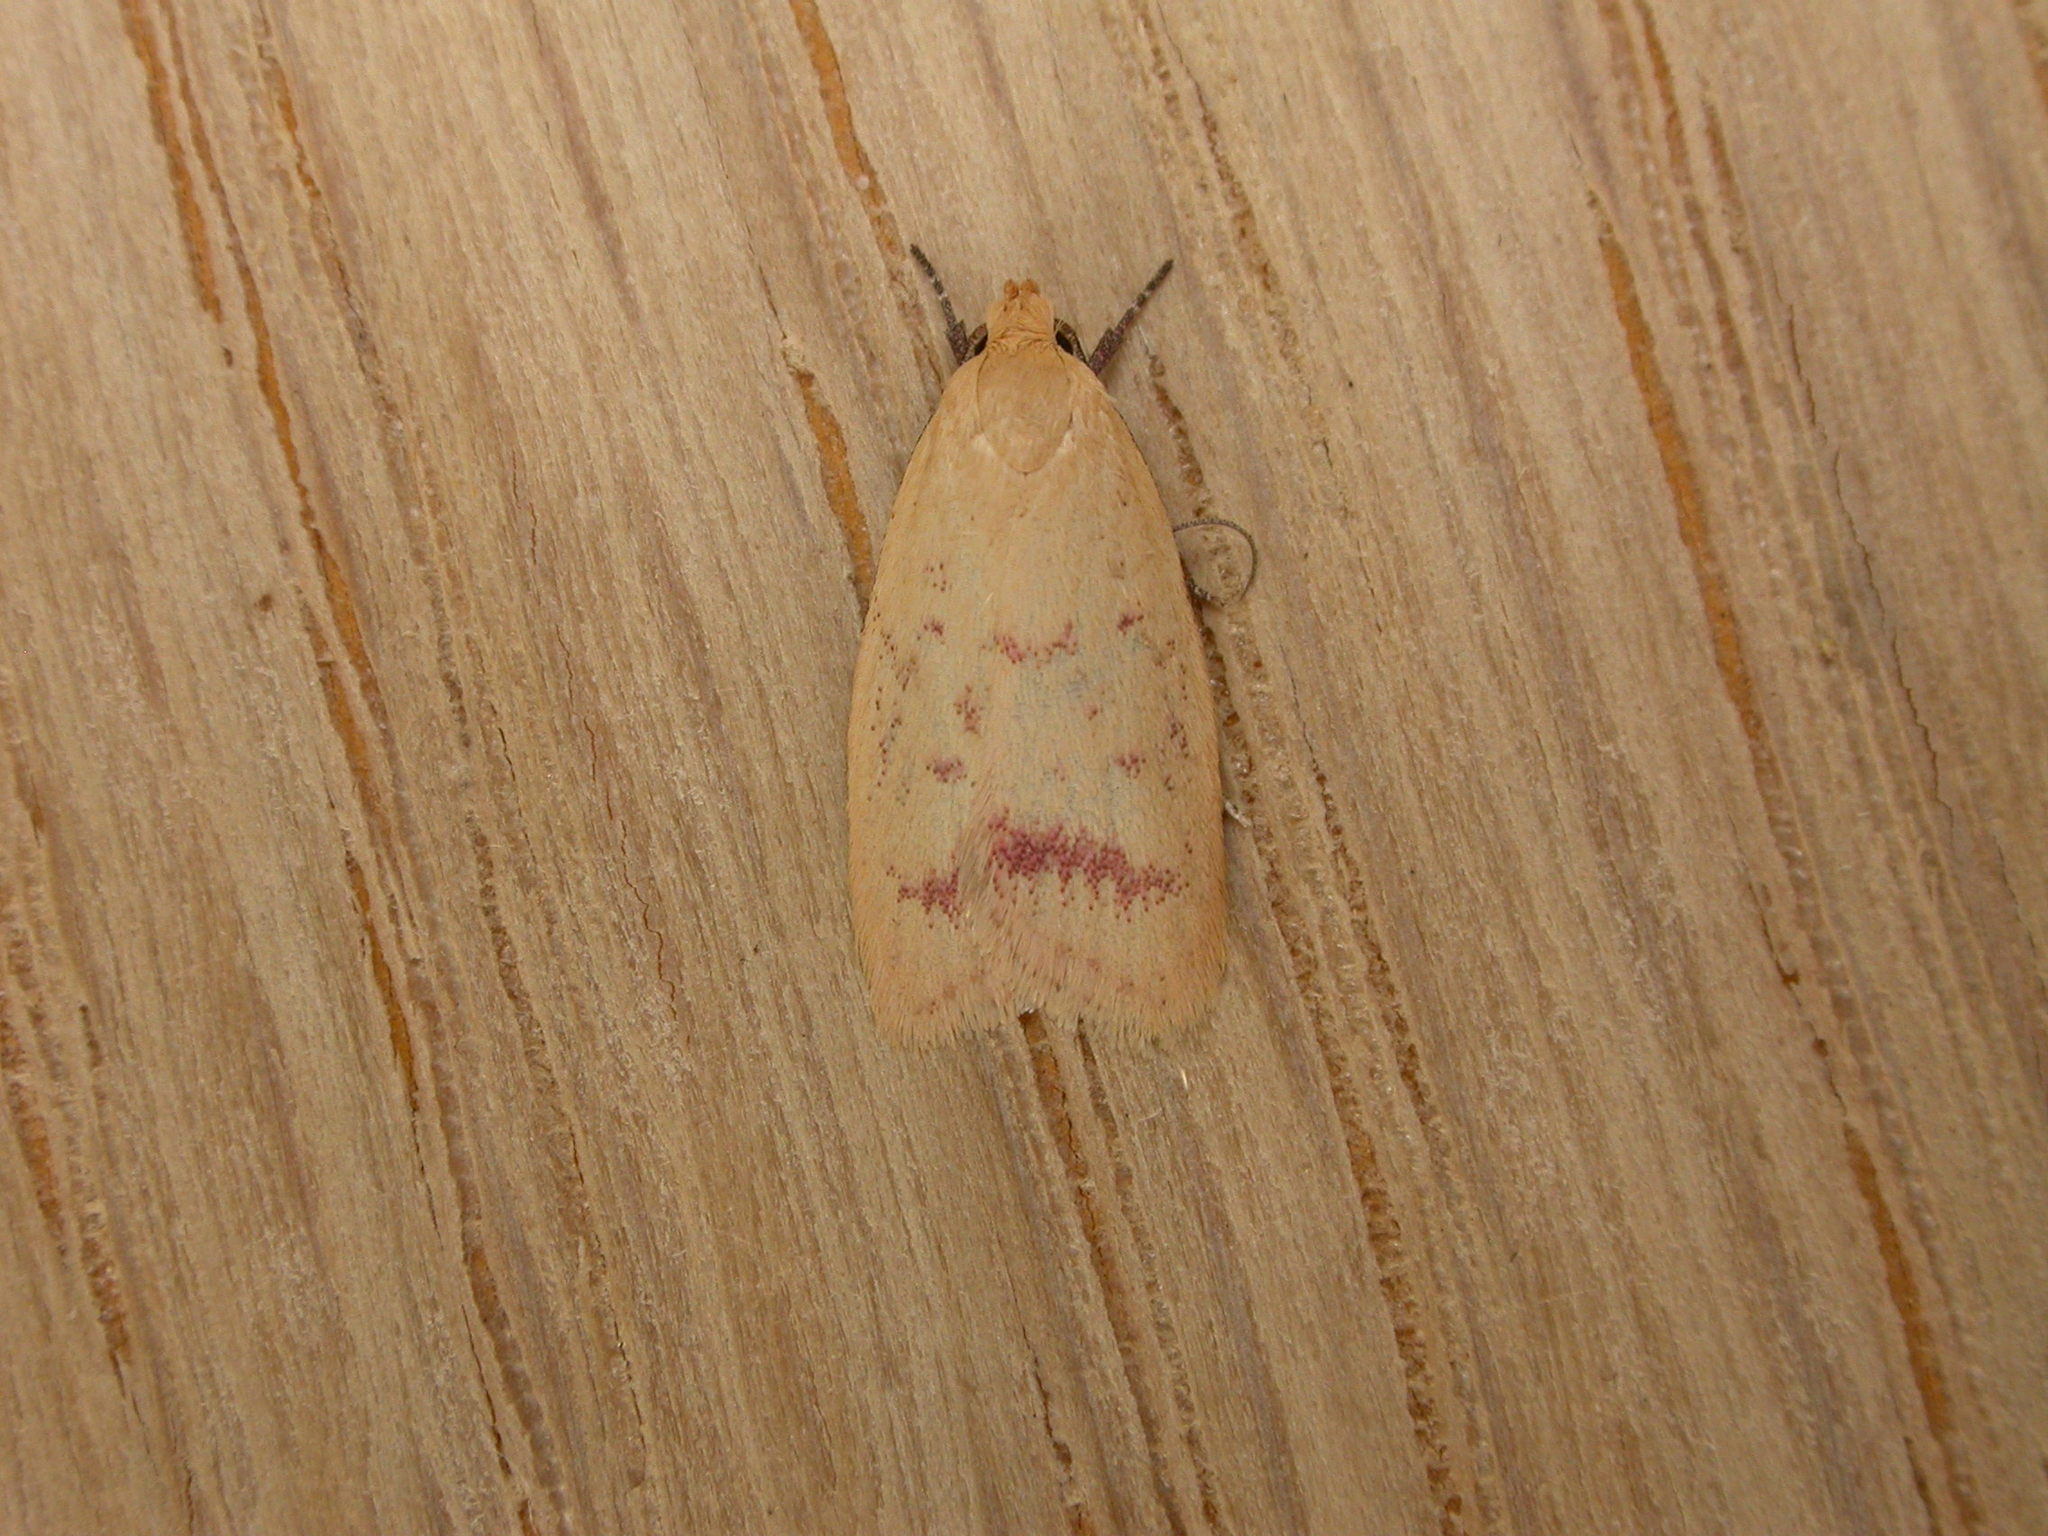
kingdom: Animalia
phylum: Arthropoda
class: Insecta
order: Lepidoptera
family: Oecophoridae
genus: Heteroteucha
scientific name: Heteroteucha occidua
